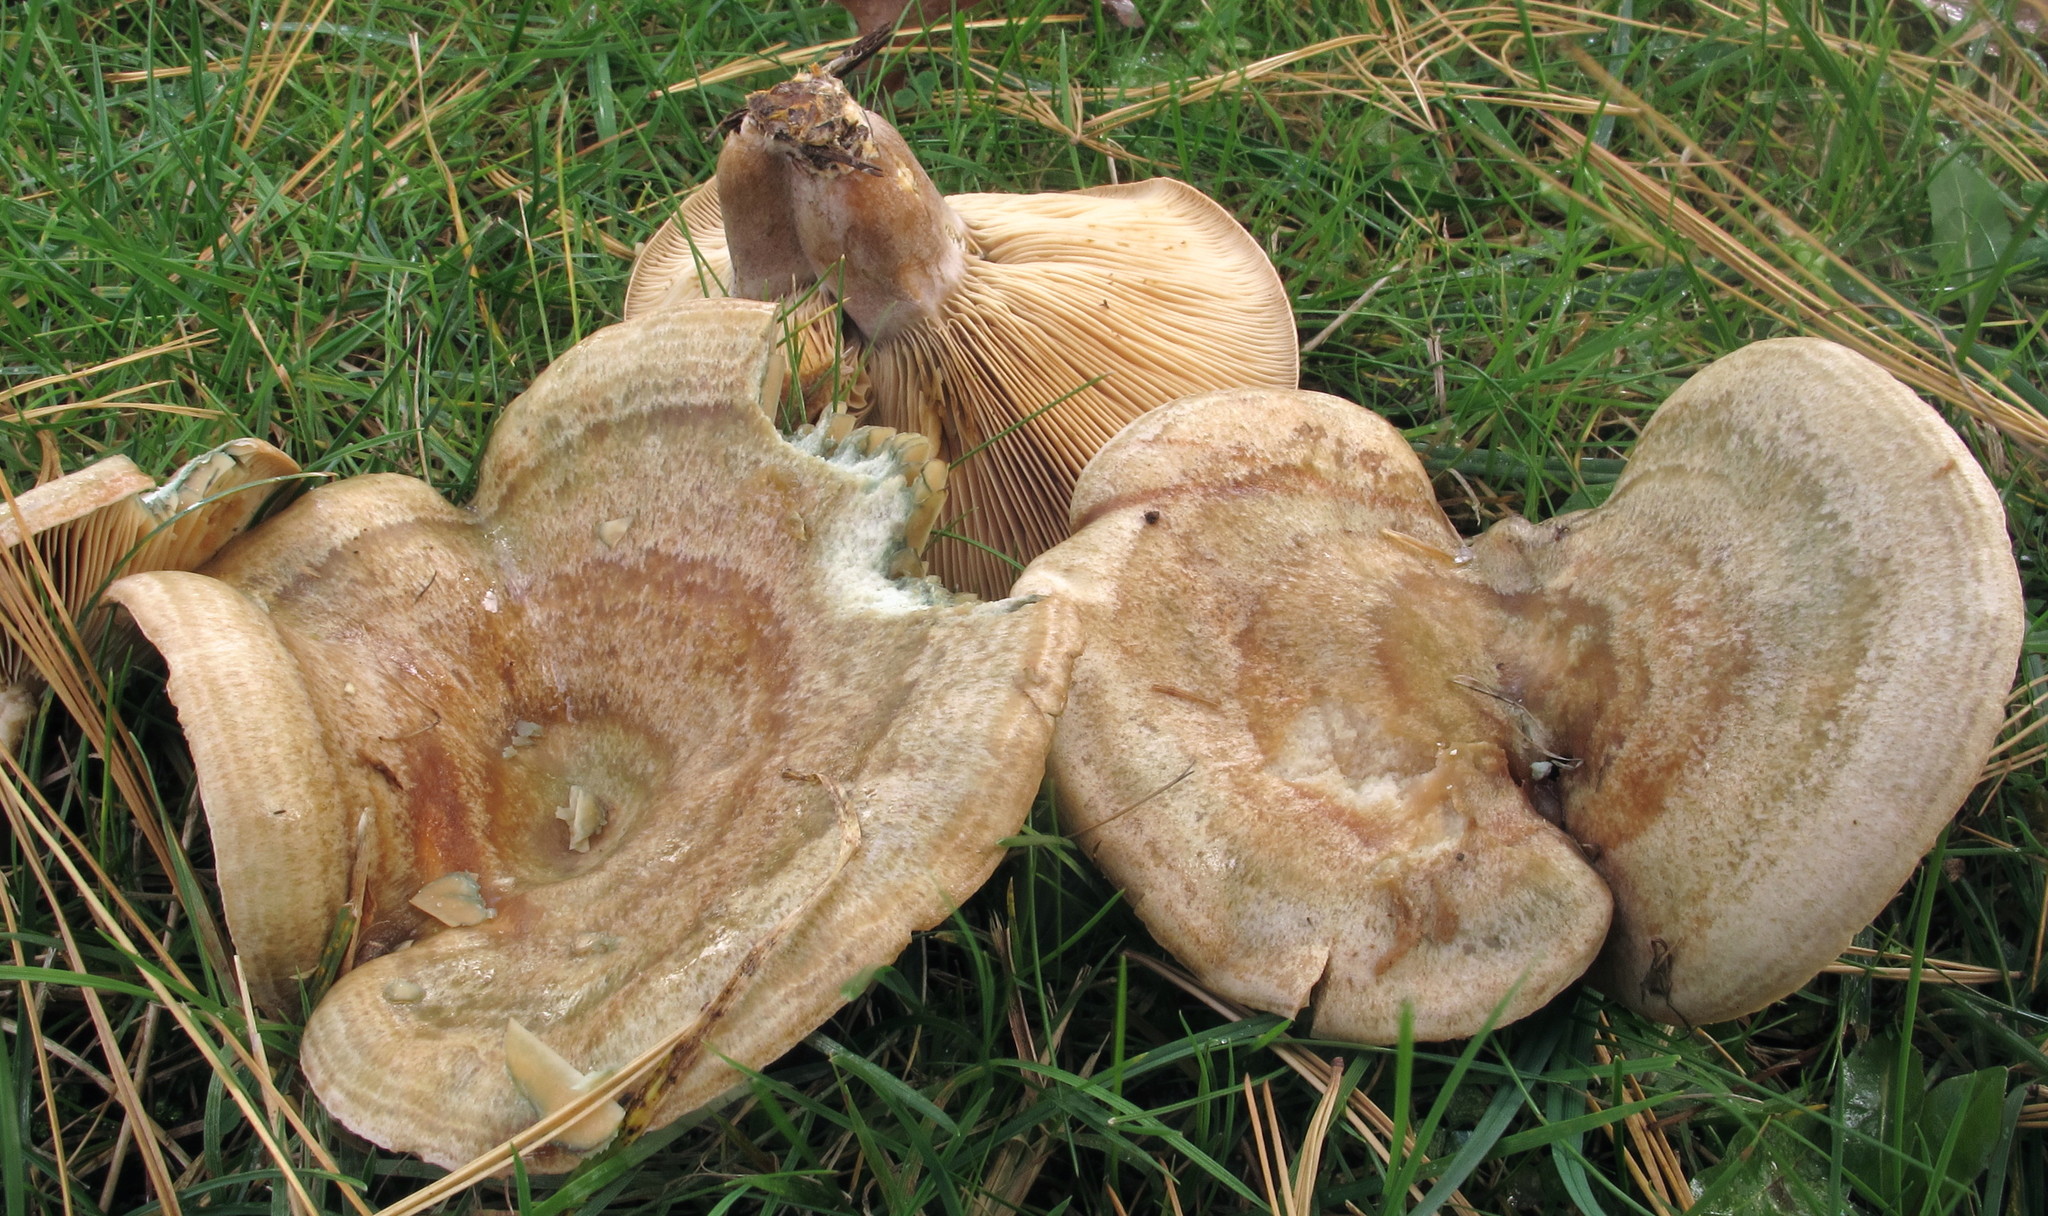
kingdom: Fungi
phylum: Basidiomycota
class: Agaricomycetes
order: Russulales
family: Russulaceae
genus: Lactarius
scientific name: Lactarius chelidonium
